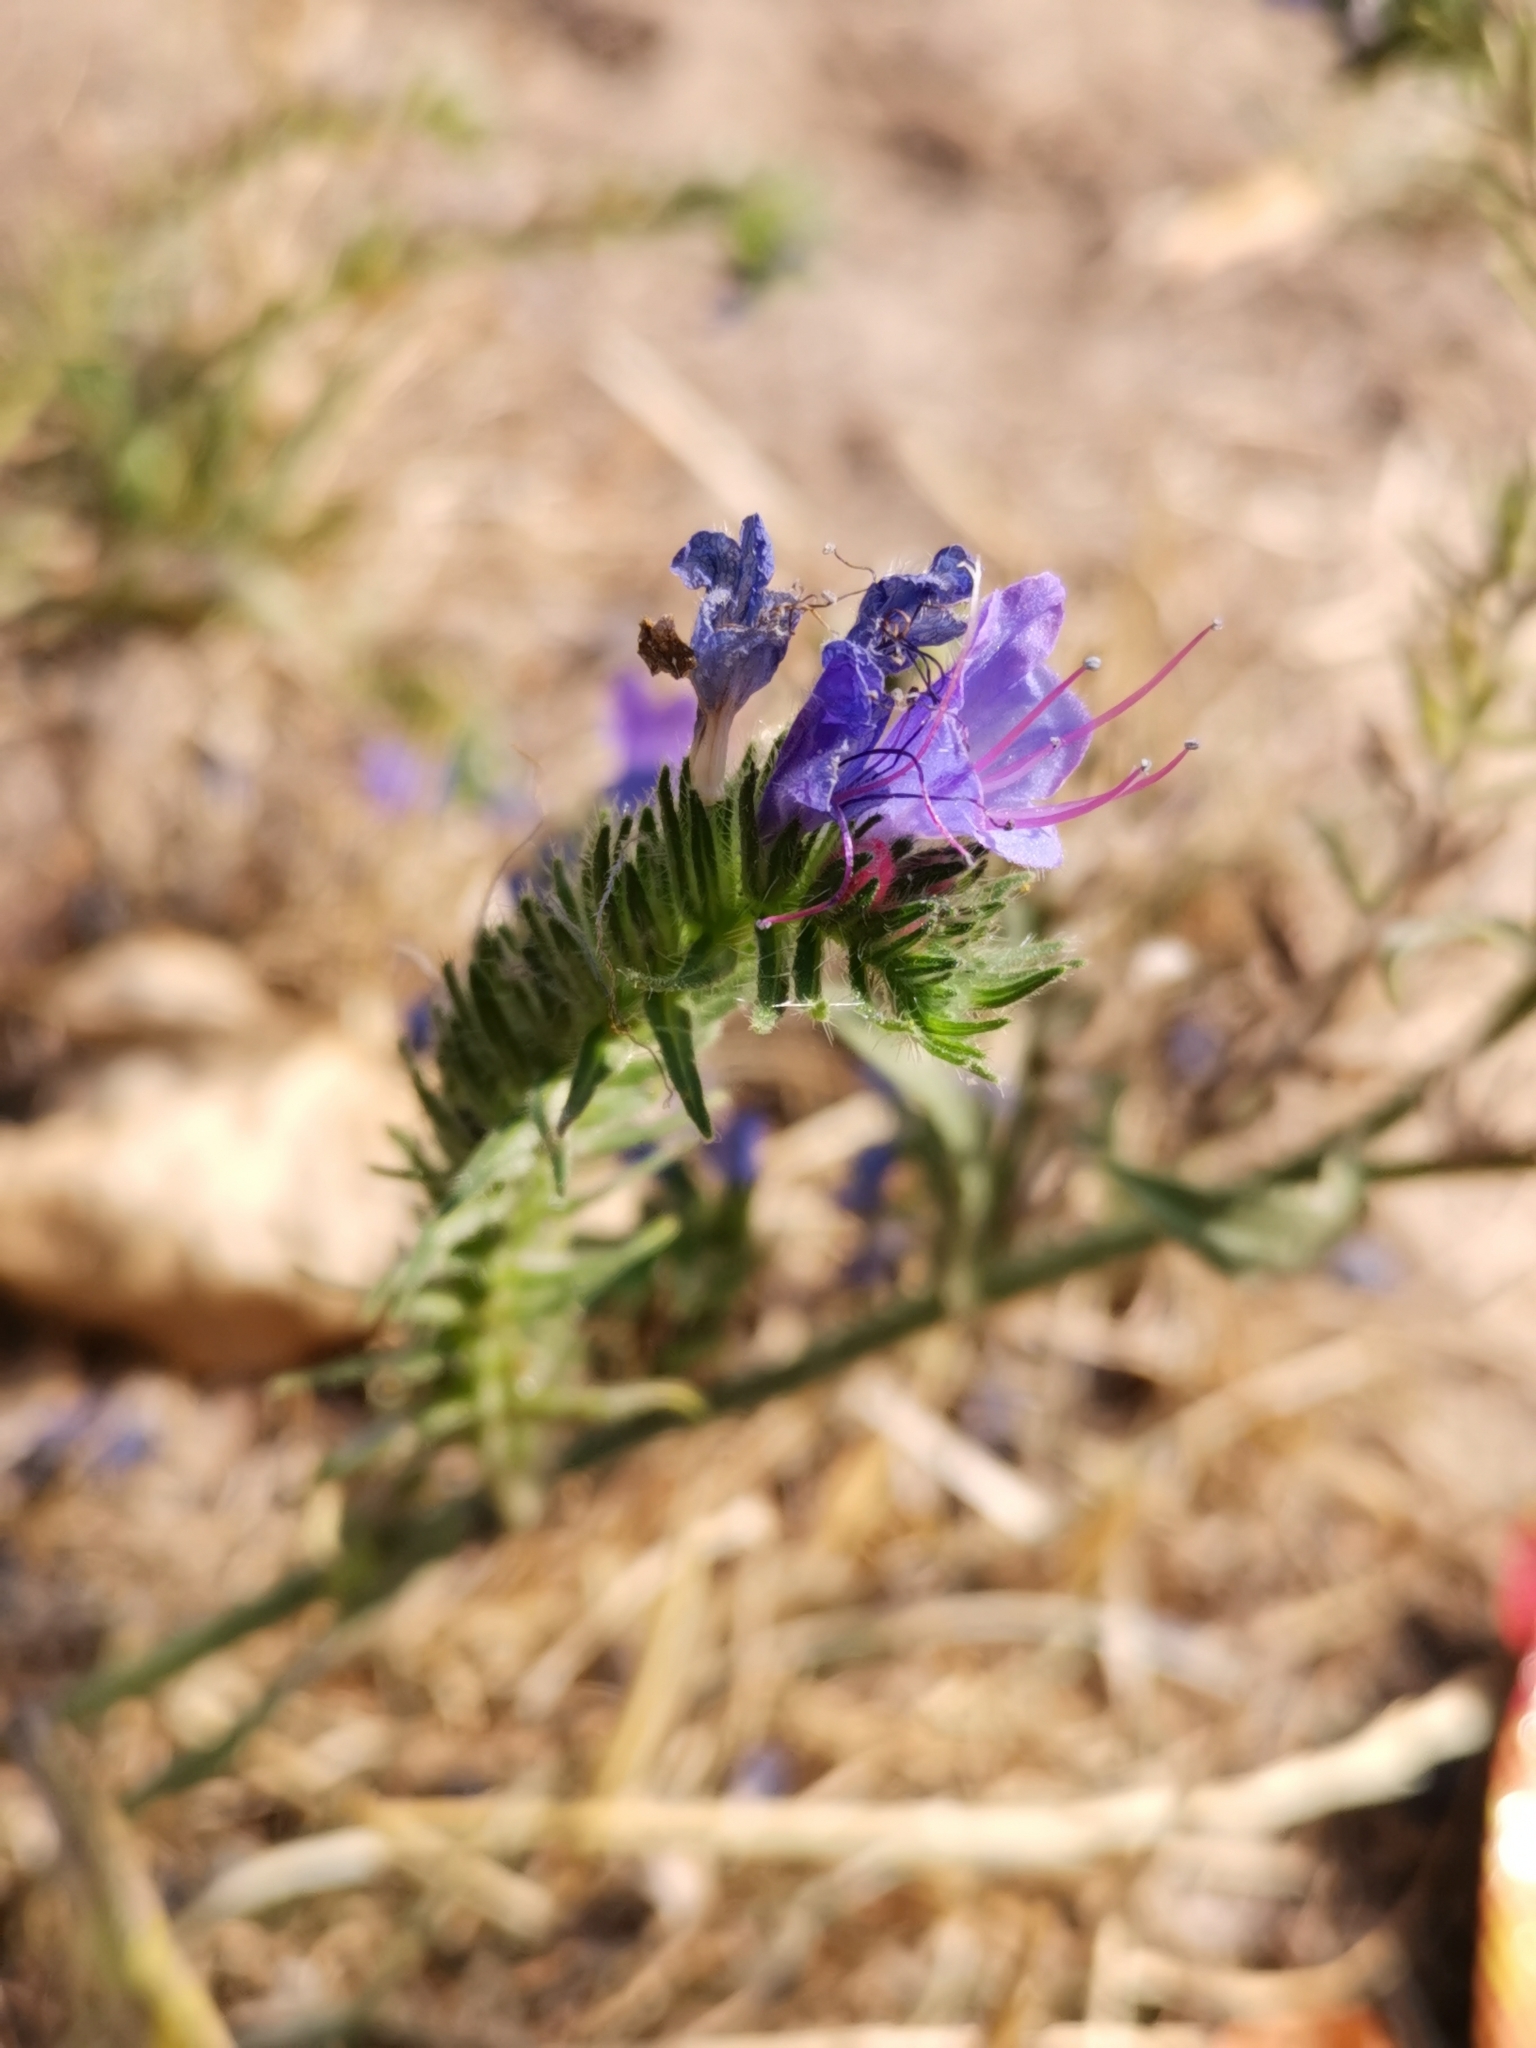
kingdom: Plantae
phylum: Tracheophyta
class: Magnoliopsida
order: Boraginales
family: Boraginaceae
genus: Echium
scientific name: Echium vulgare
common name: Common viper's bugloss
